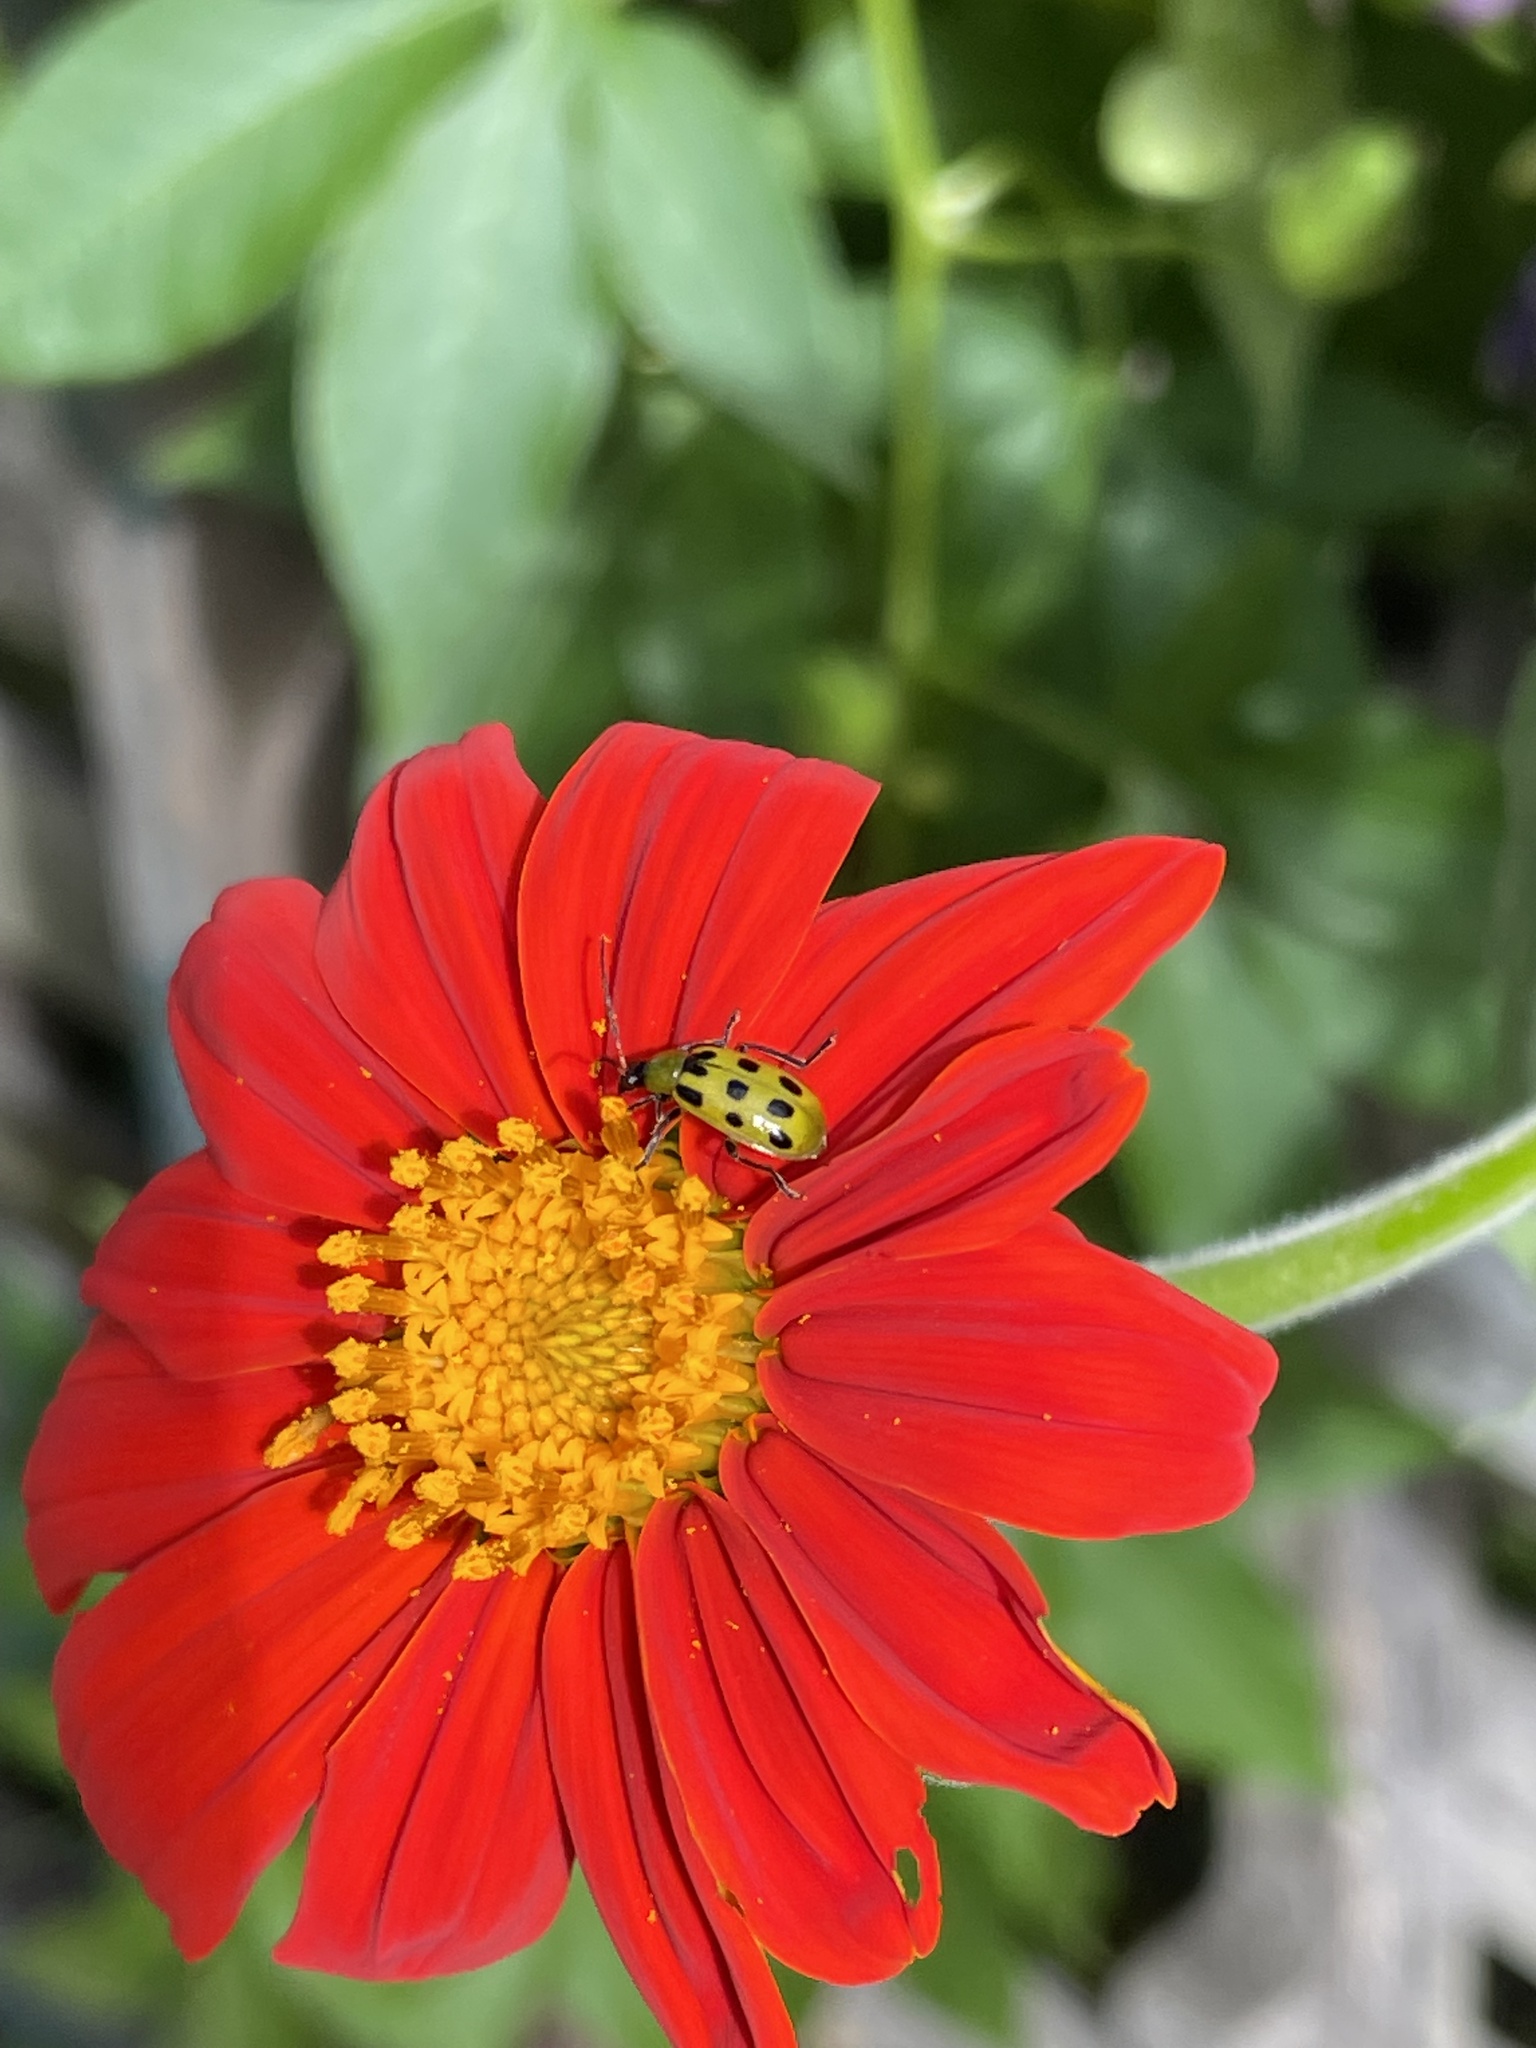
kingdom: Animalia
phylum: Arthropoda
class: Insecta
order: Coleoptera
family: Chrysomelidae
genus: Diabrotica
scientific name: Diabrotica undecimpunctata
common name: Spotted cucumber beetle
